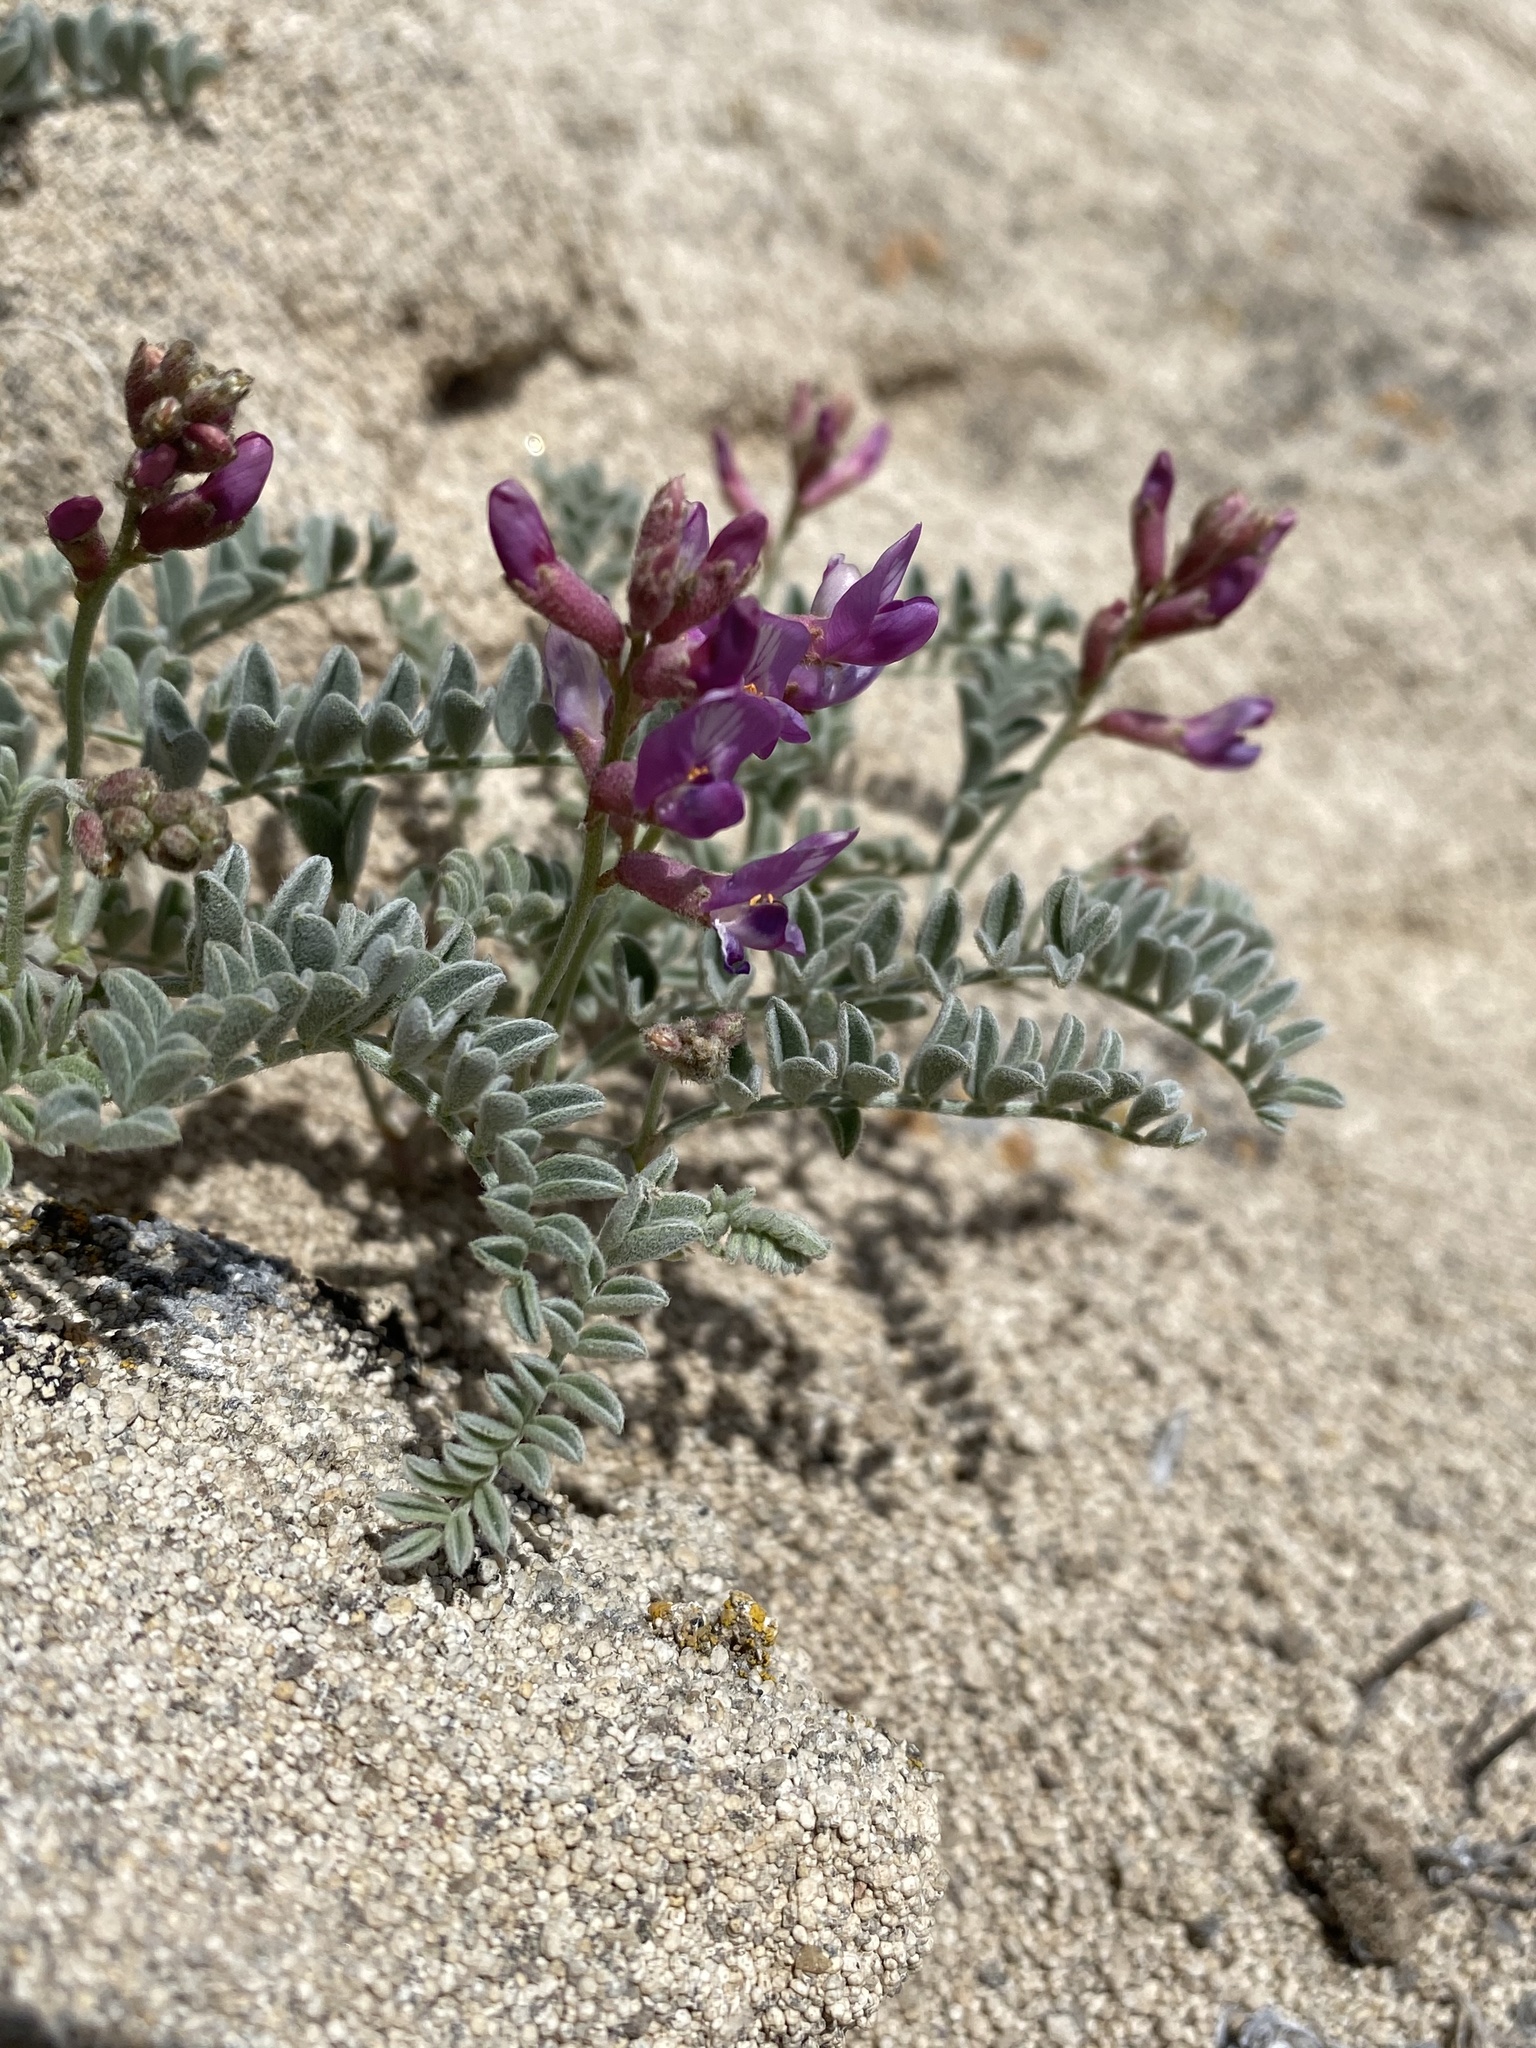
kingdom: Plantae
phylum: Tracheophyta
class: Magnoliopsida
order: Fabales
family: Fabaceae
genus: Astragalus
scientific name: Astragalus camptopus
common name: Bruneau milk-vetch
